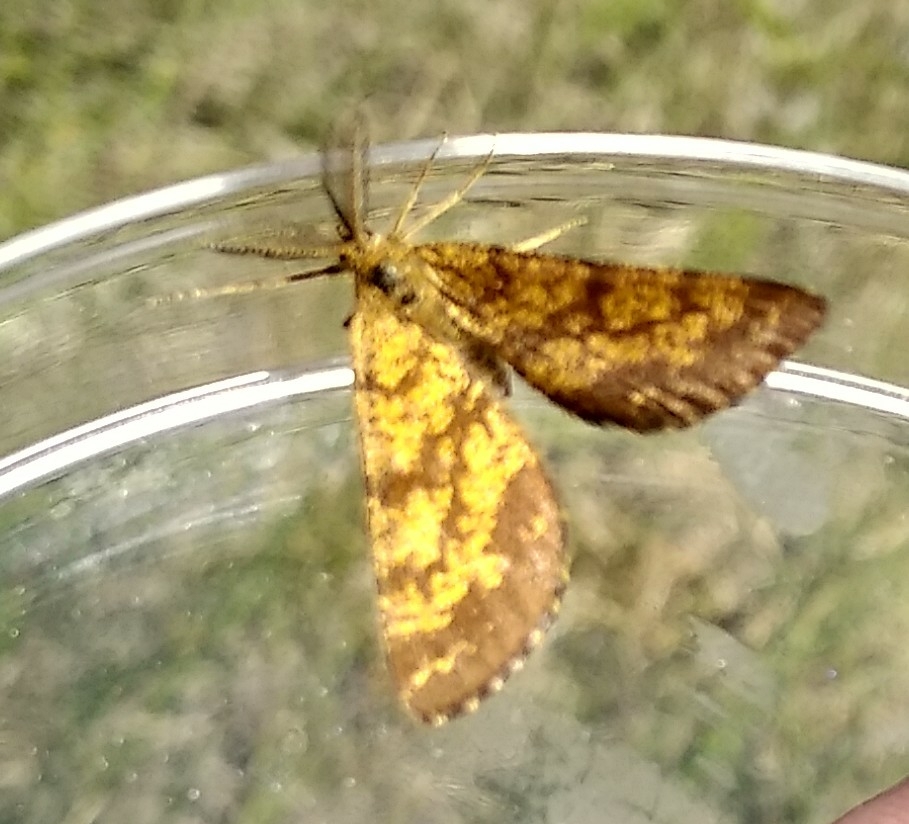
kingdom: Animalia
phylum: Arthropoda
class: Insecta
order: Lepidoptera
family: Geometridae
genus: Ematurga
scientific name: Ematurga atomaria
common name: Common heath
